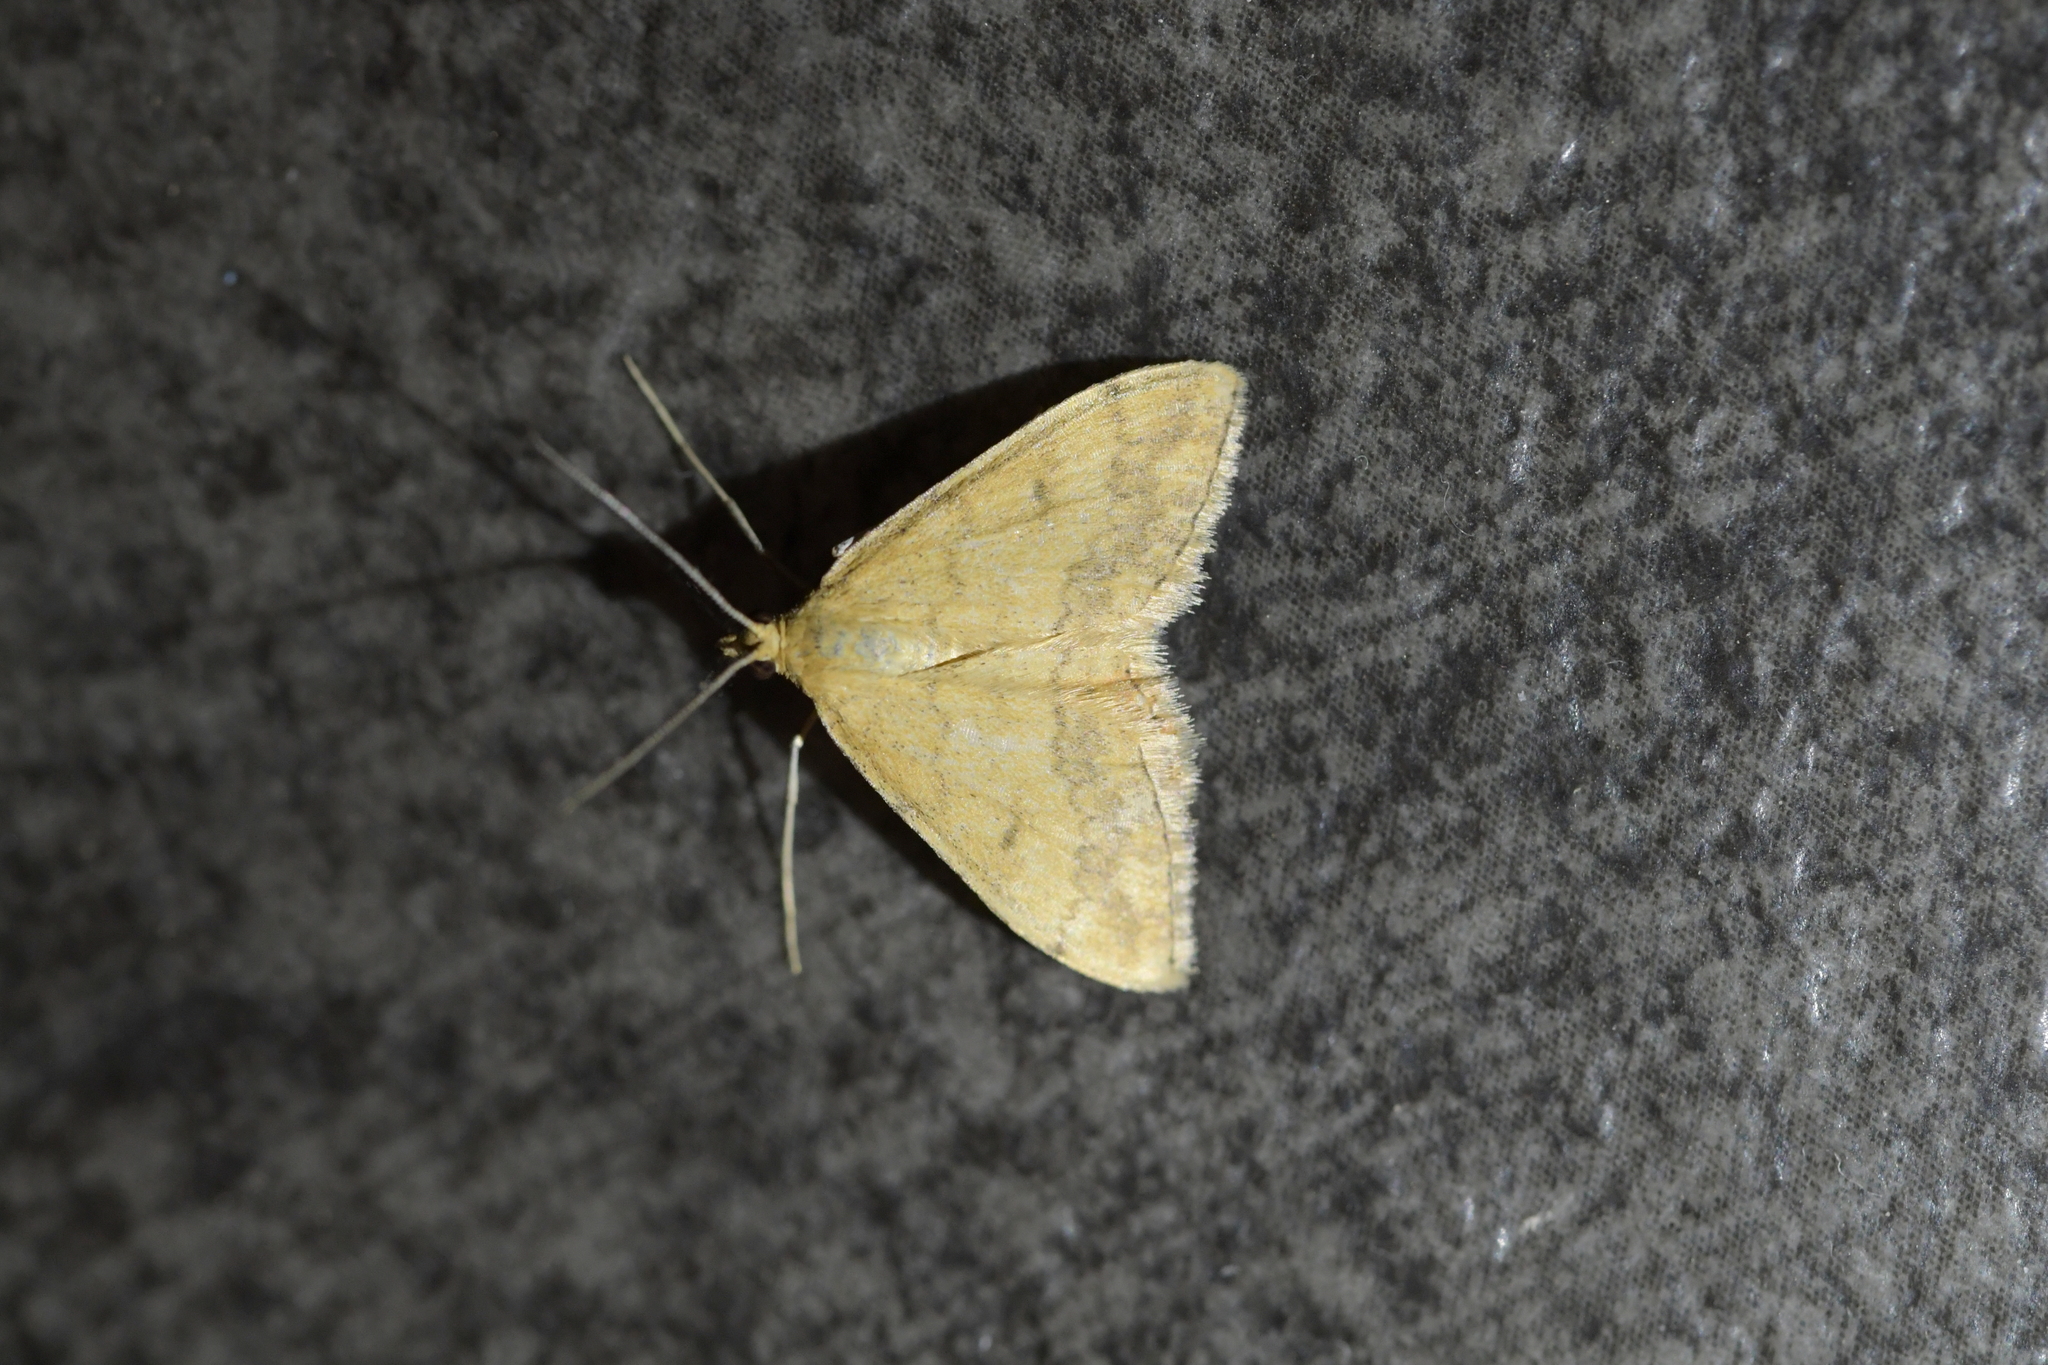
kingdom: Animalia
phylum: Arthropoda
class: Insecta
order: Lepidoptera
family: Geometridae
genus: Scopula
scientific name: Scopula rubraria
